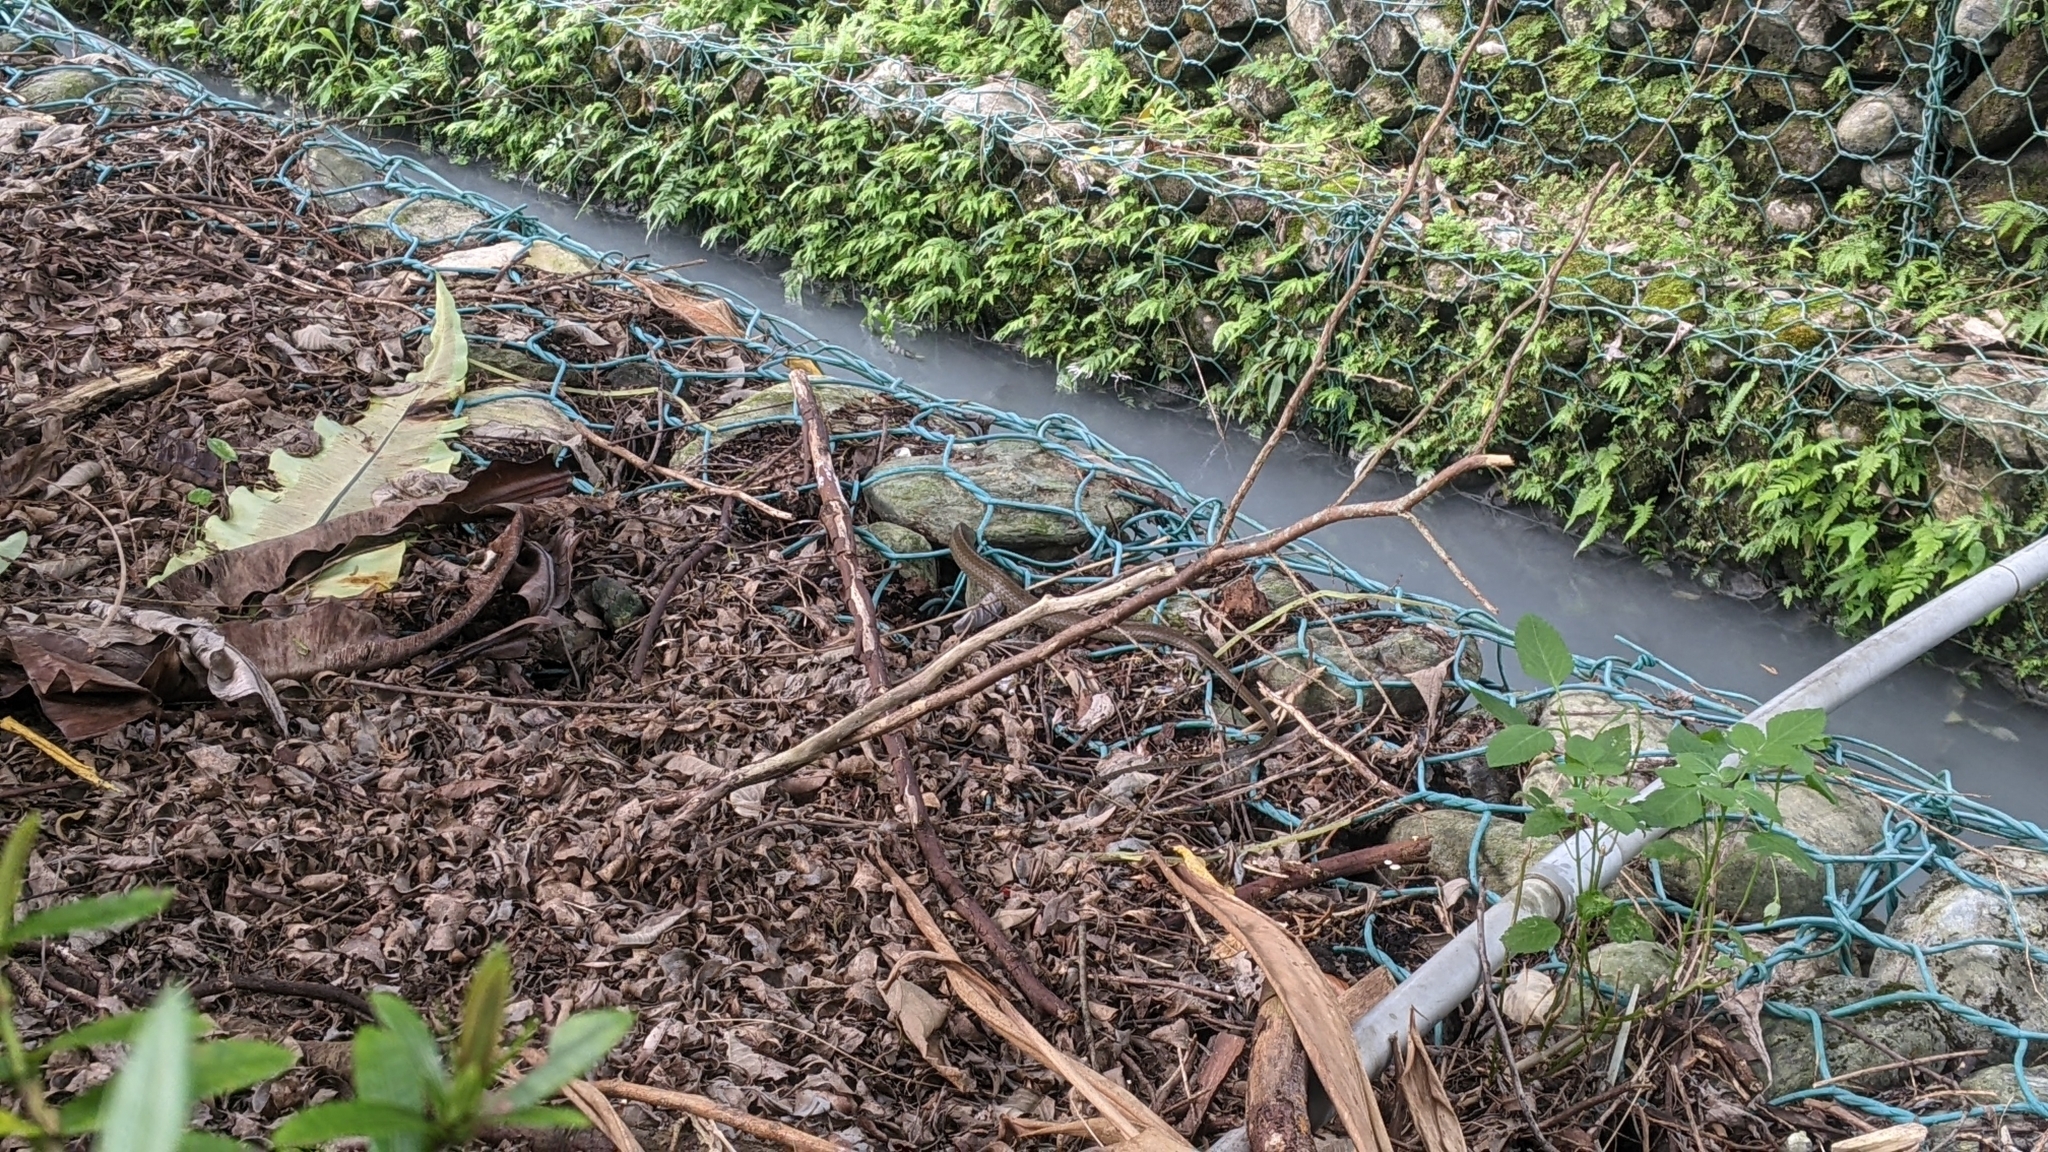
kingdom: Animalia
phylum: Chordata
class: Squamata
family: Colubridae
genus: Ptyas
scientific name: Ptyas dhumnades
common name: Black-striped rat snake
